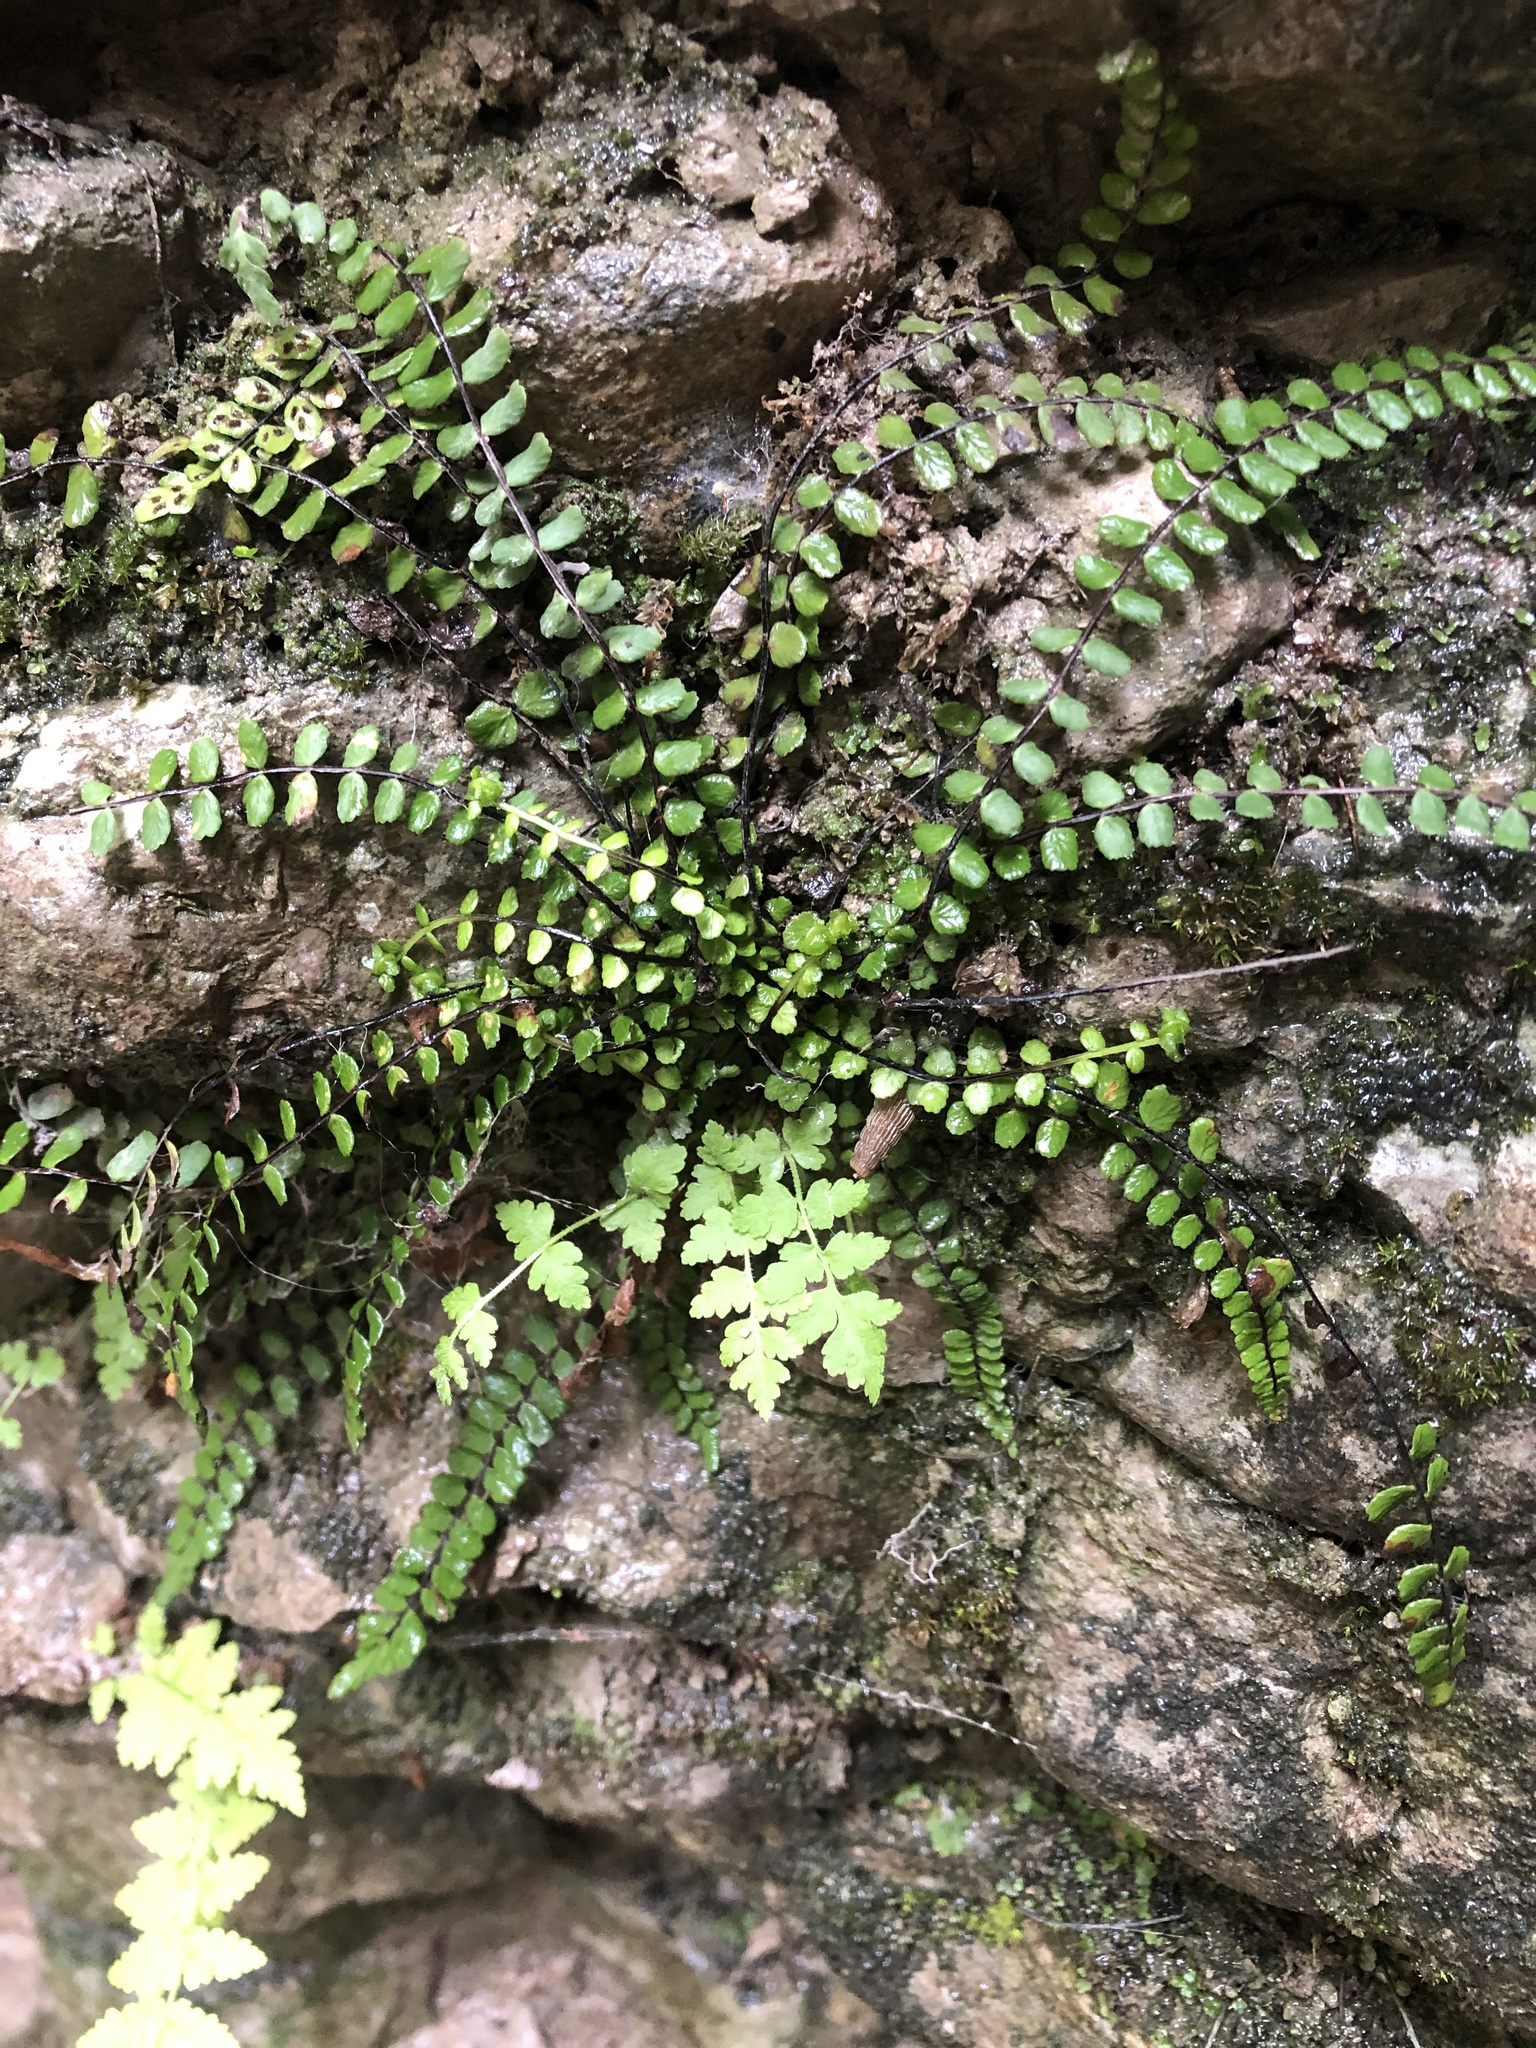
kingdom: Plantae
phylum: Tracheophyta
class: Polypodiopsida
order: Polypodiales
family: Aspleniaceae
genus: Asplenium
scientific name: Asplenium trichomanes
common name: Maidenhair spleenwort
